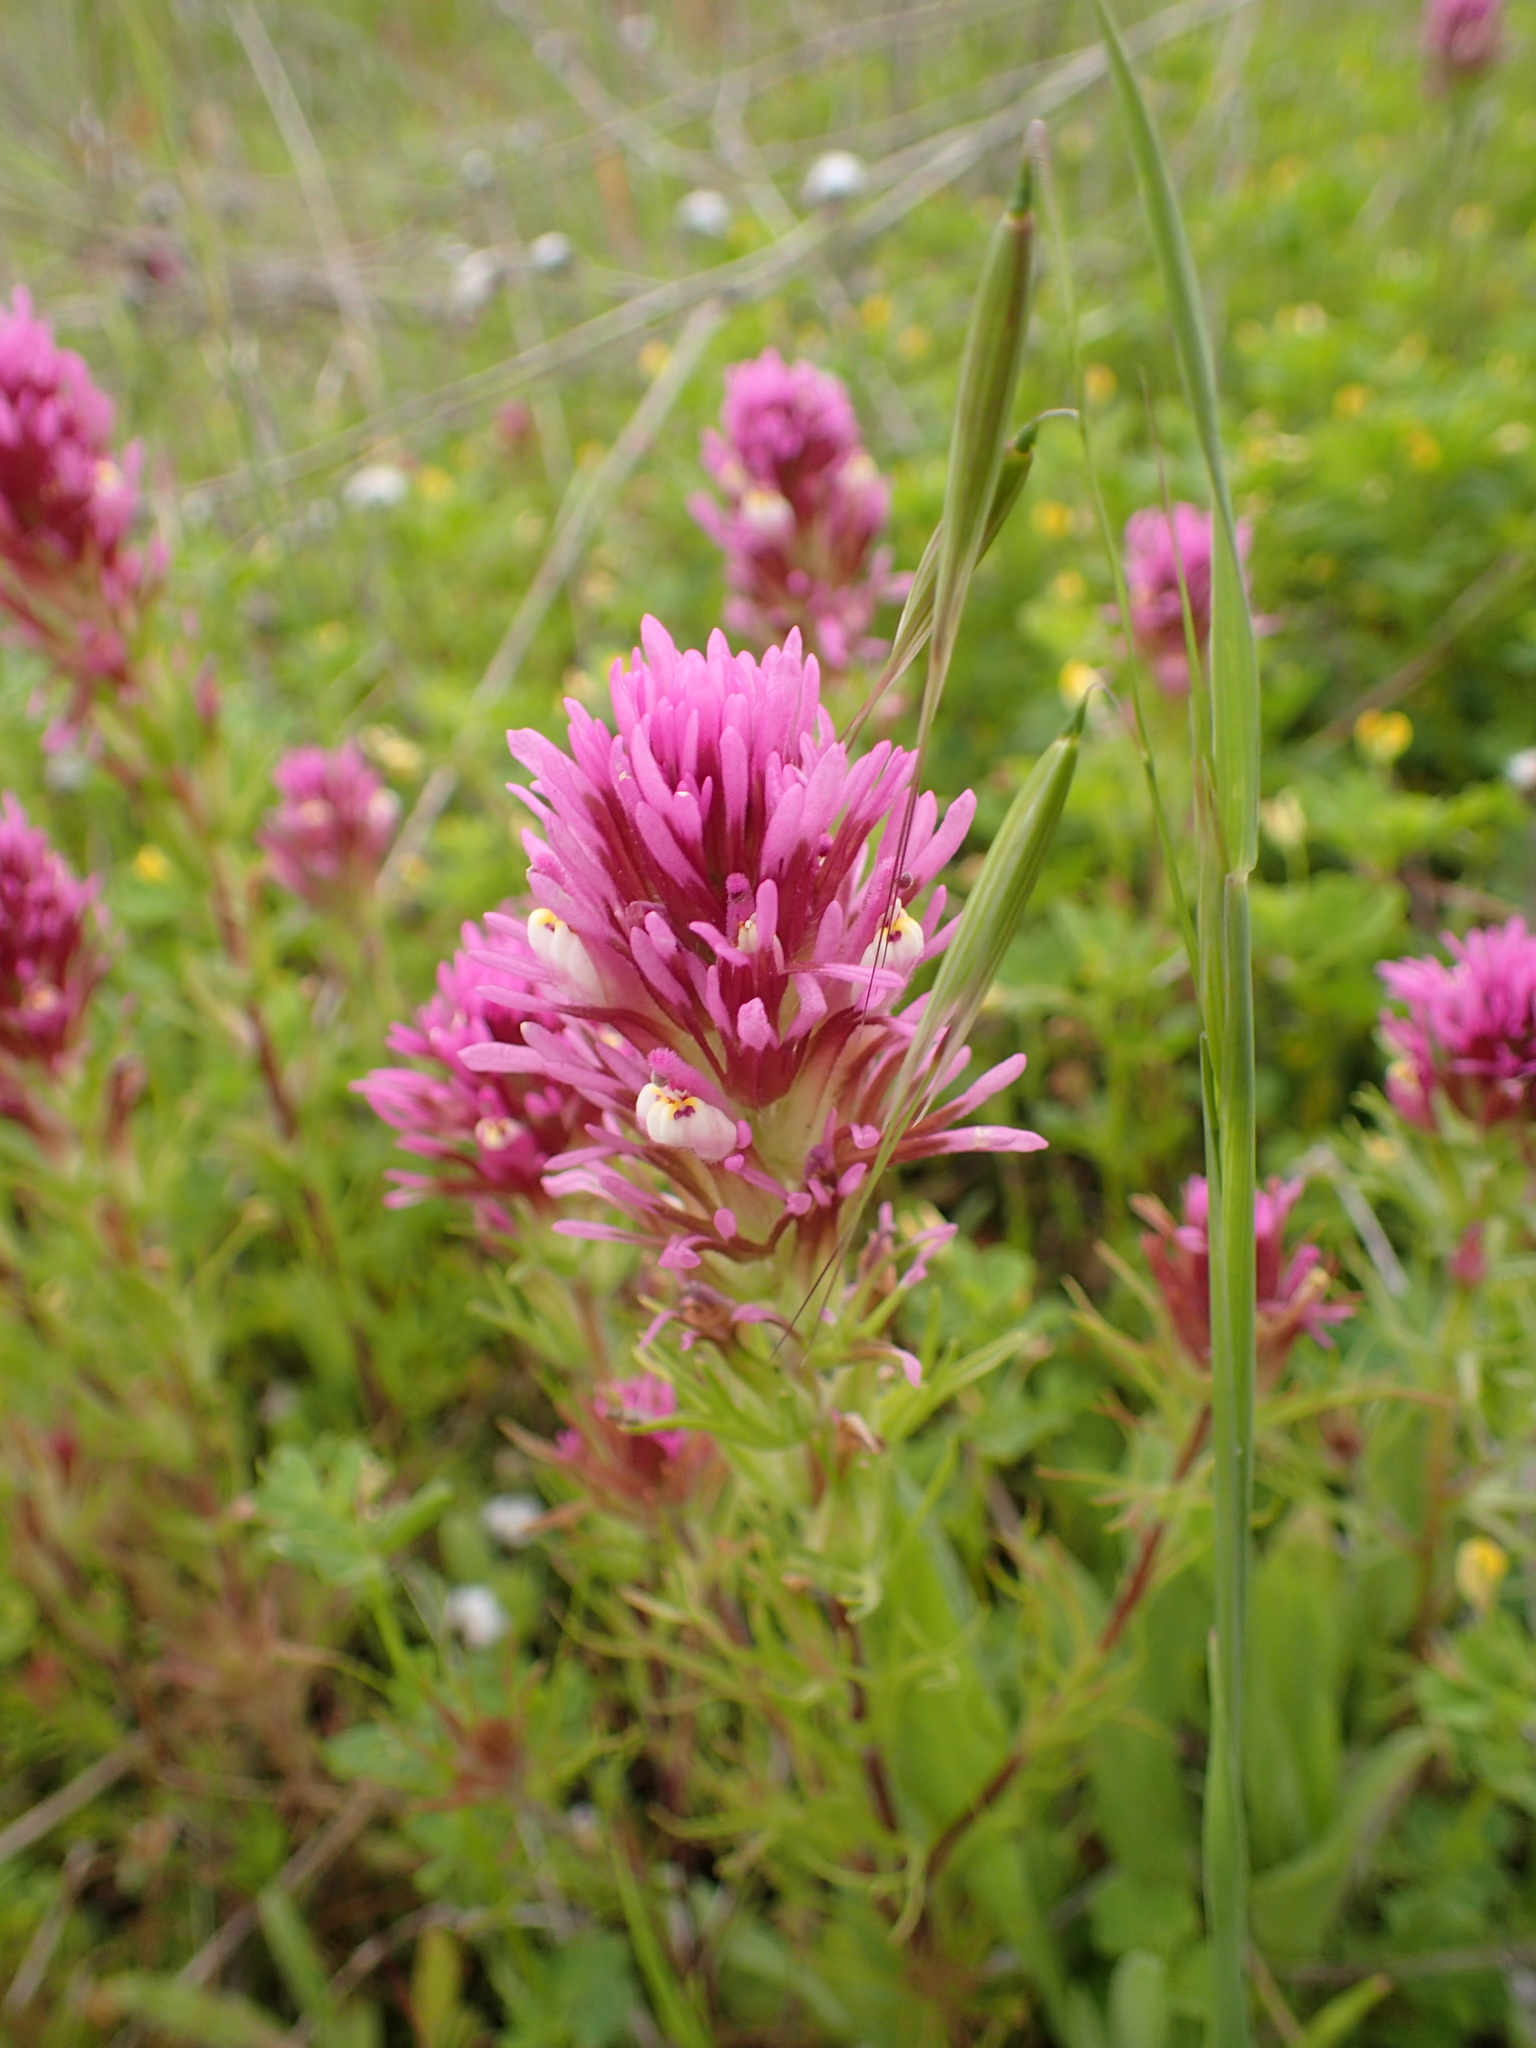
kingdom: Plantae
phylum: Tracheophyta
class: Magnoliopsida
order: Lamiales
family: Orobanchaceae
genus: Castilleja
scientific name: Castilleja exserta
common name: Purple owl-clover
